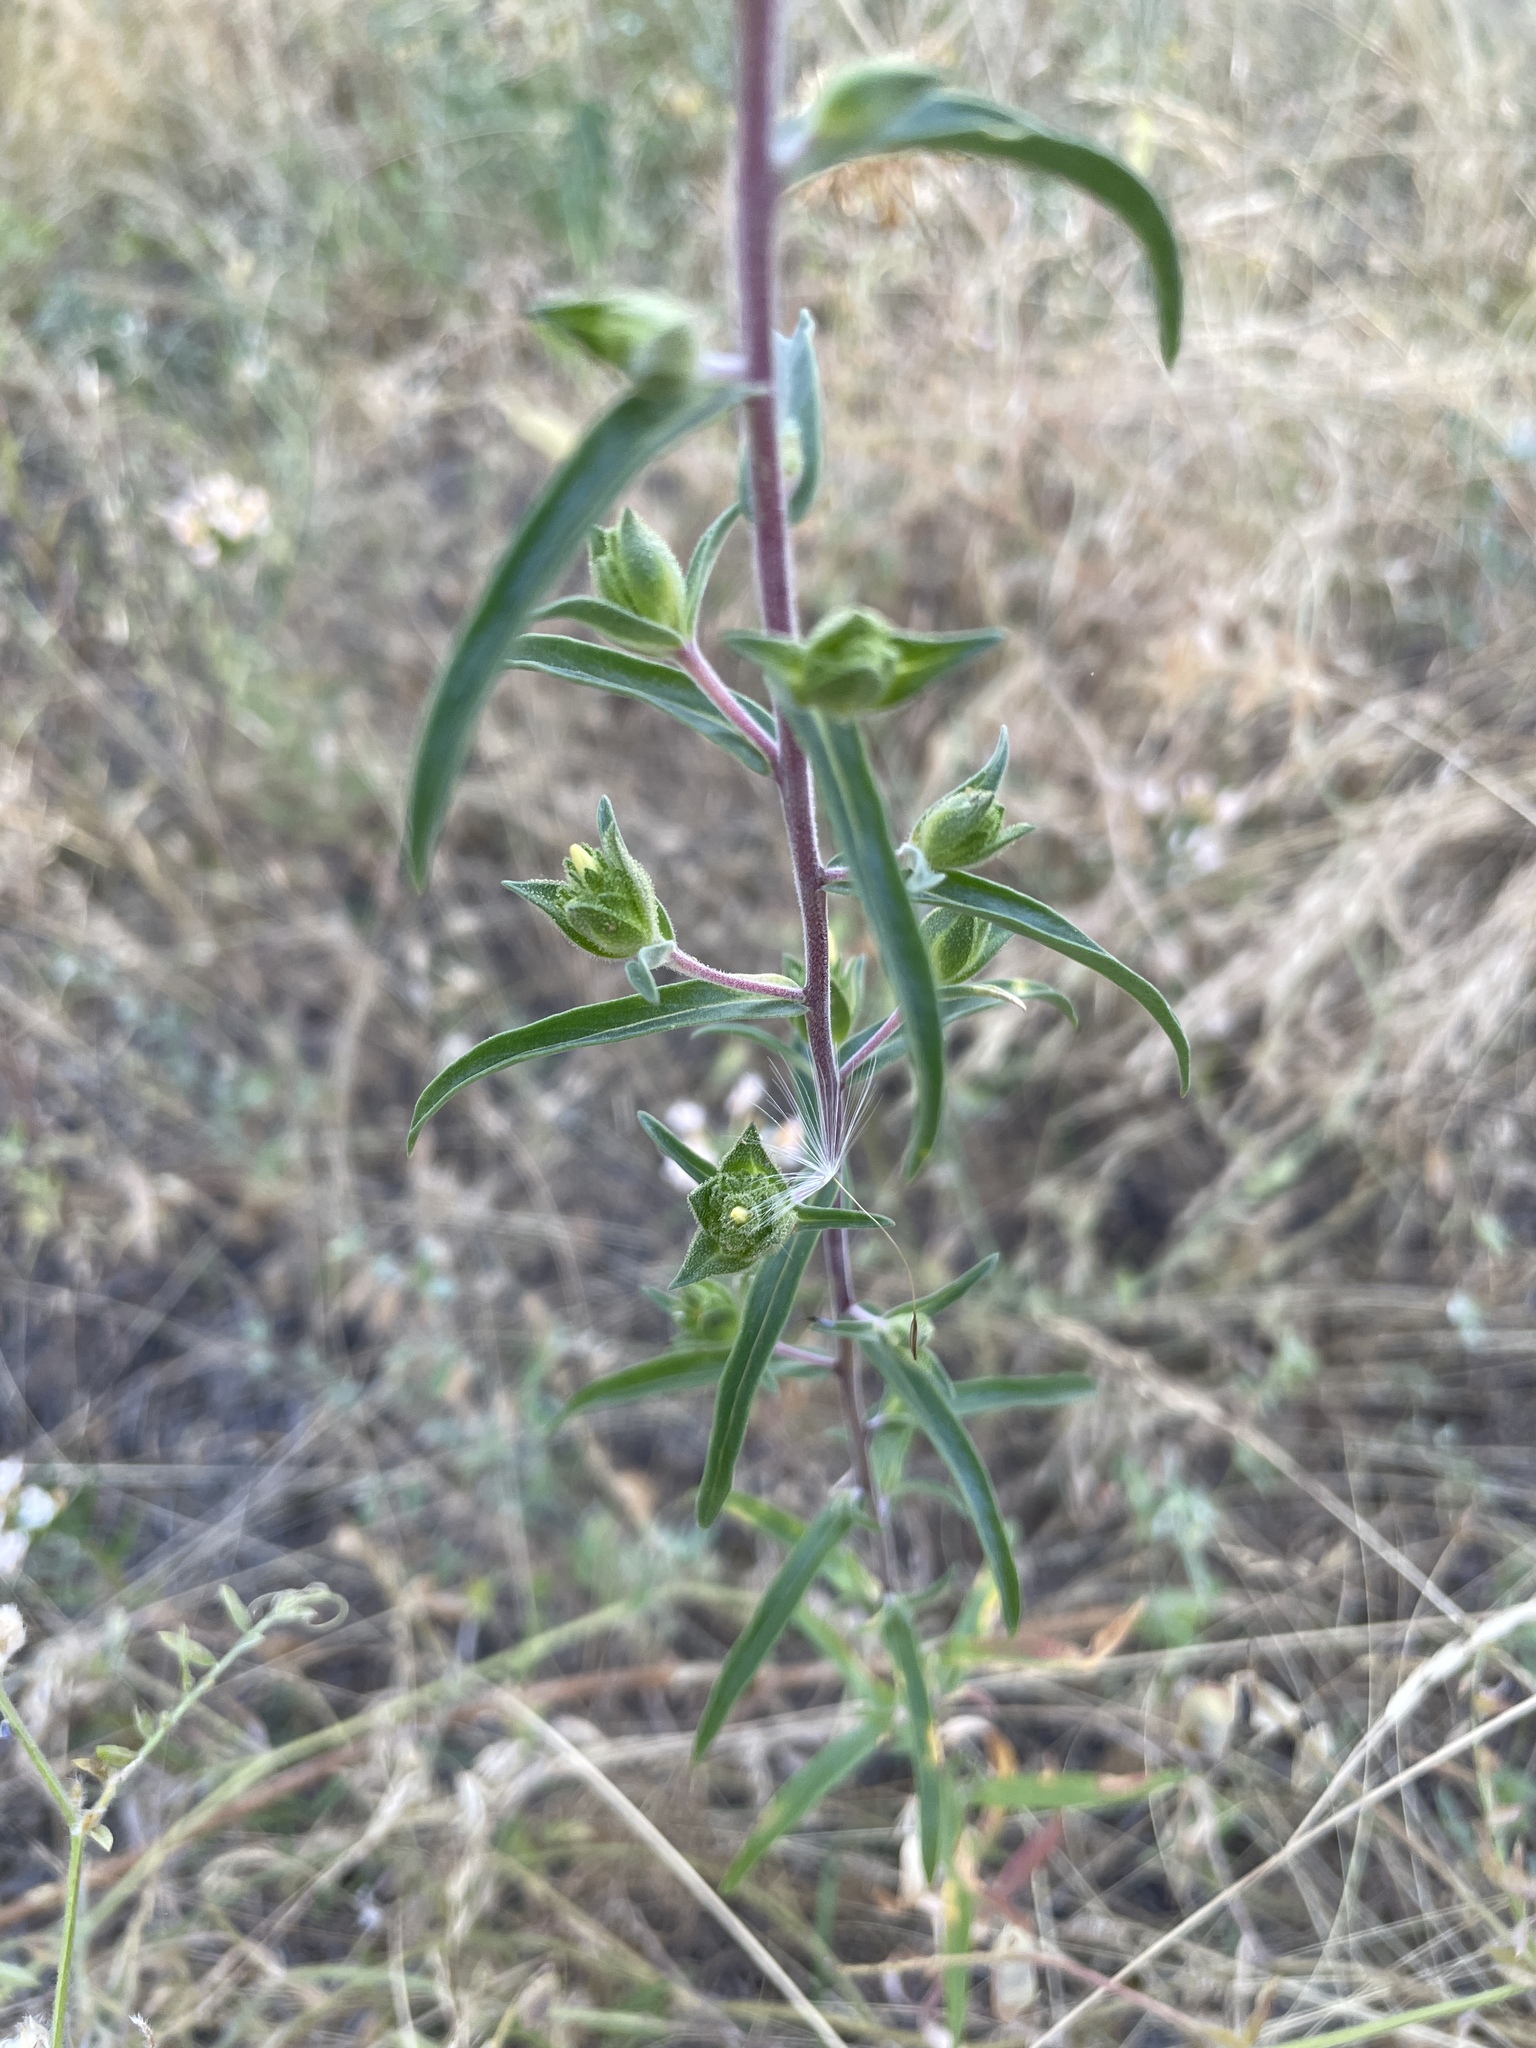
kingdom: Plantae
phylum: Tracheophyta
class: Magnoliopsida
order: Ericales
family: Polemoniaceae
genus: Collomia
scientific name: Collomia grandiflora
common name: California strawflower
